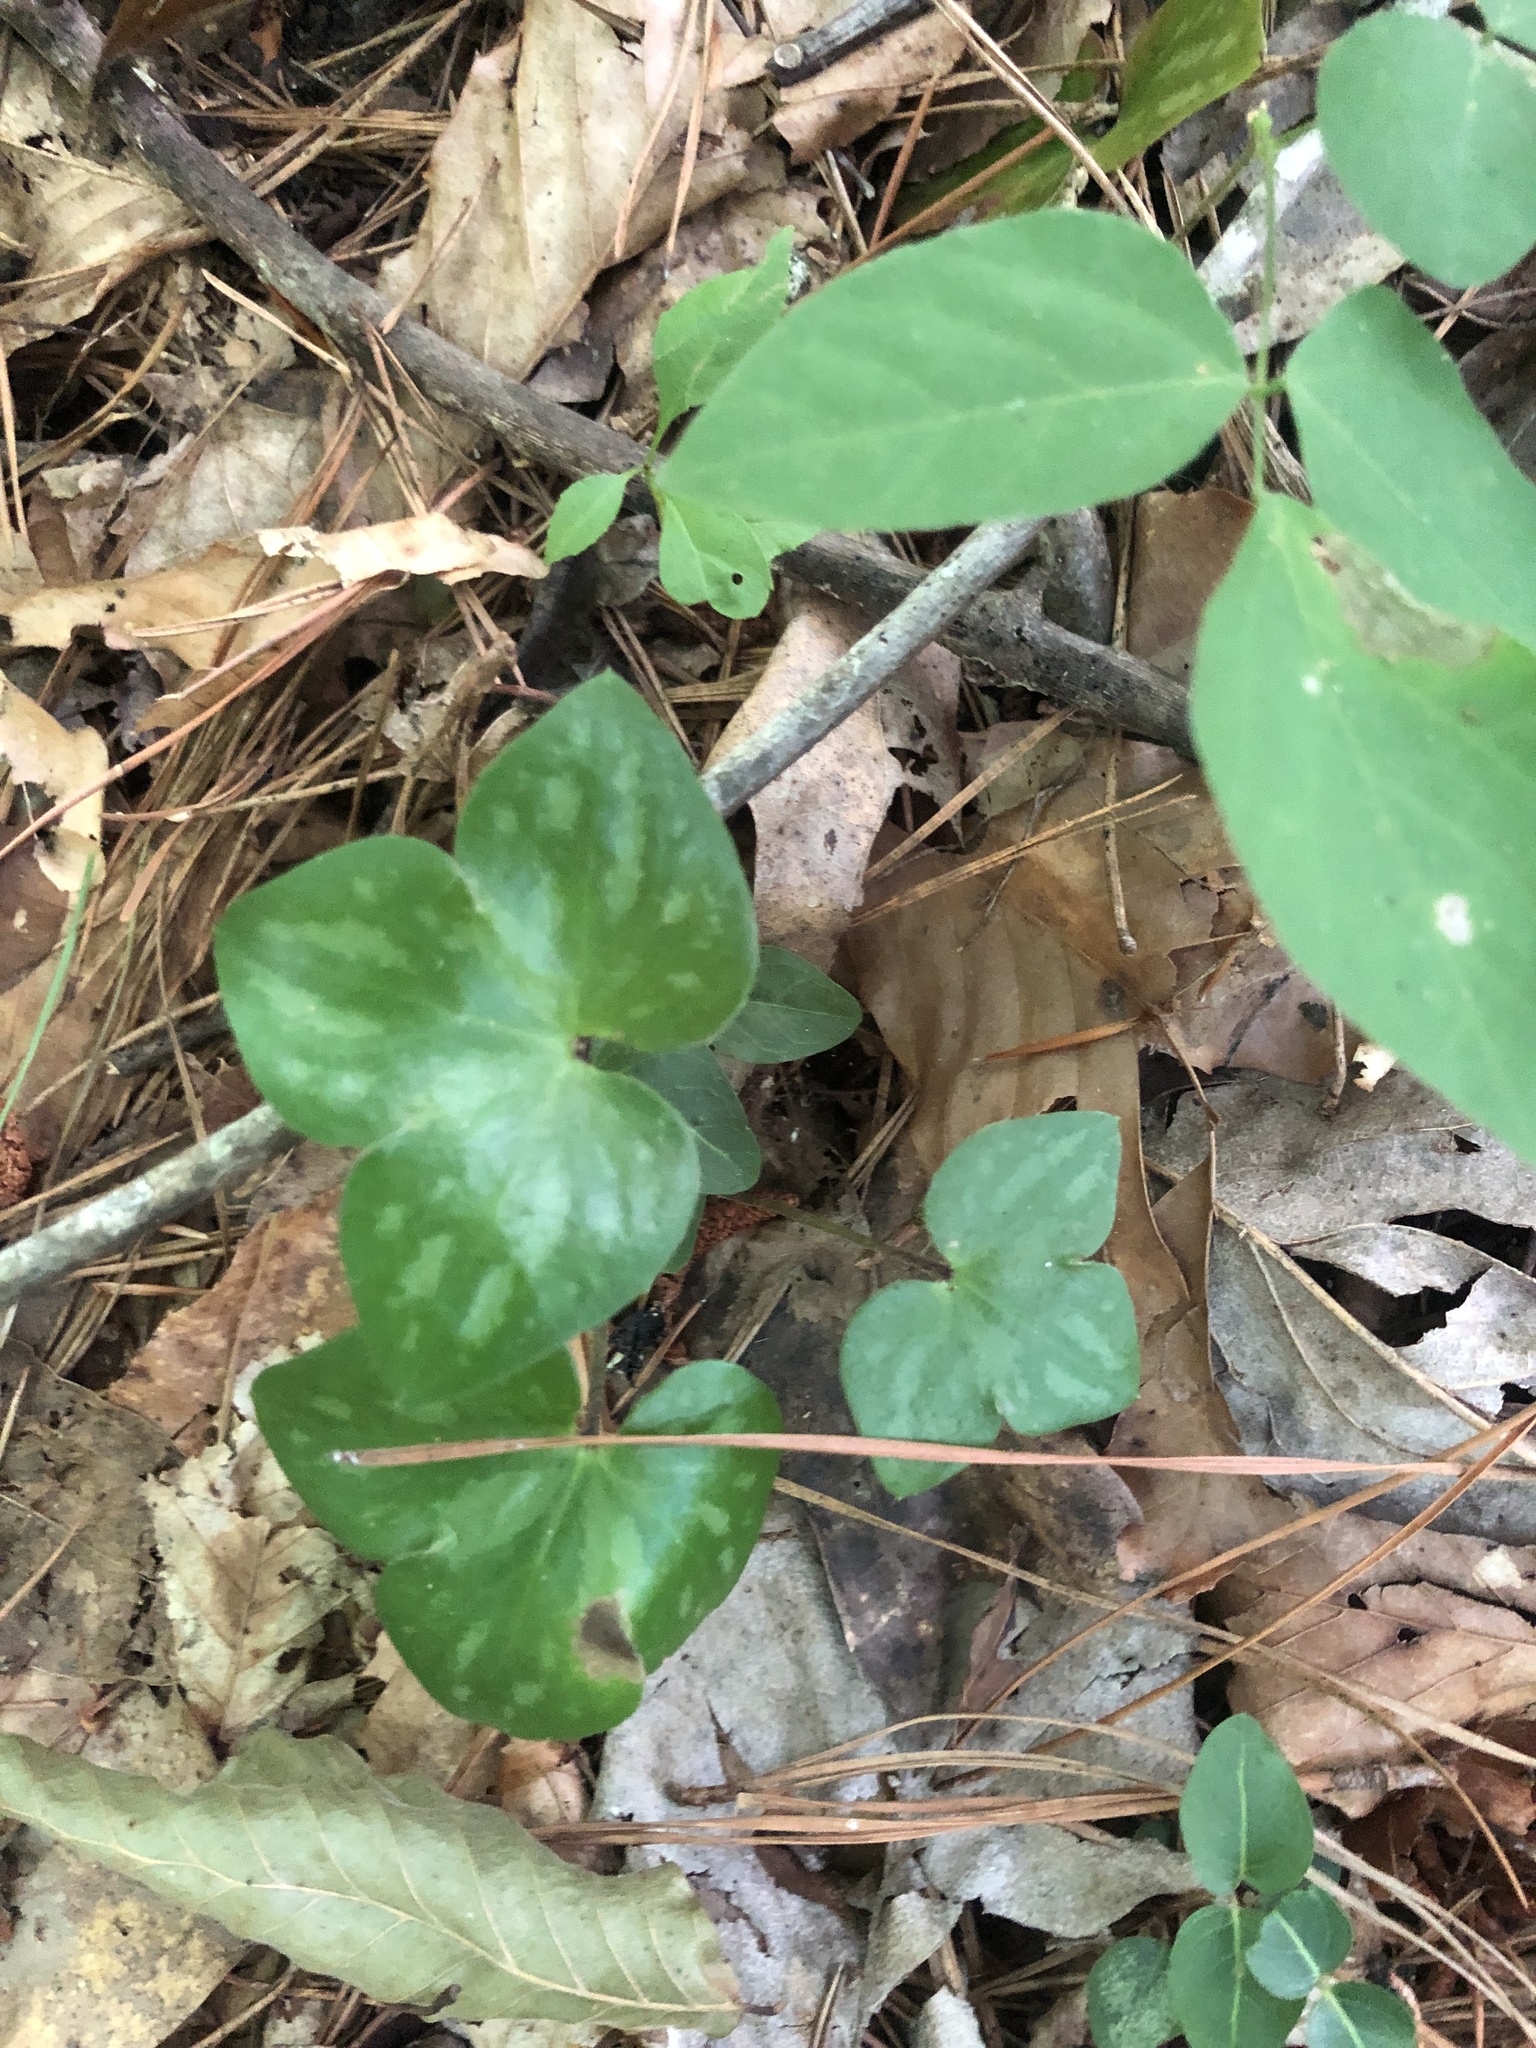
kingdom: Plantae
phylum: Tracheophyta
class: Magnoliopsida
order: Ranunculales
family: Ranunculaceae
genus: Hepatica
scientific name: Hepatica acutiloba
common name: Sharp-lobed hepatica
